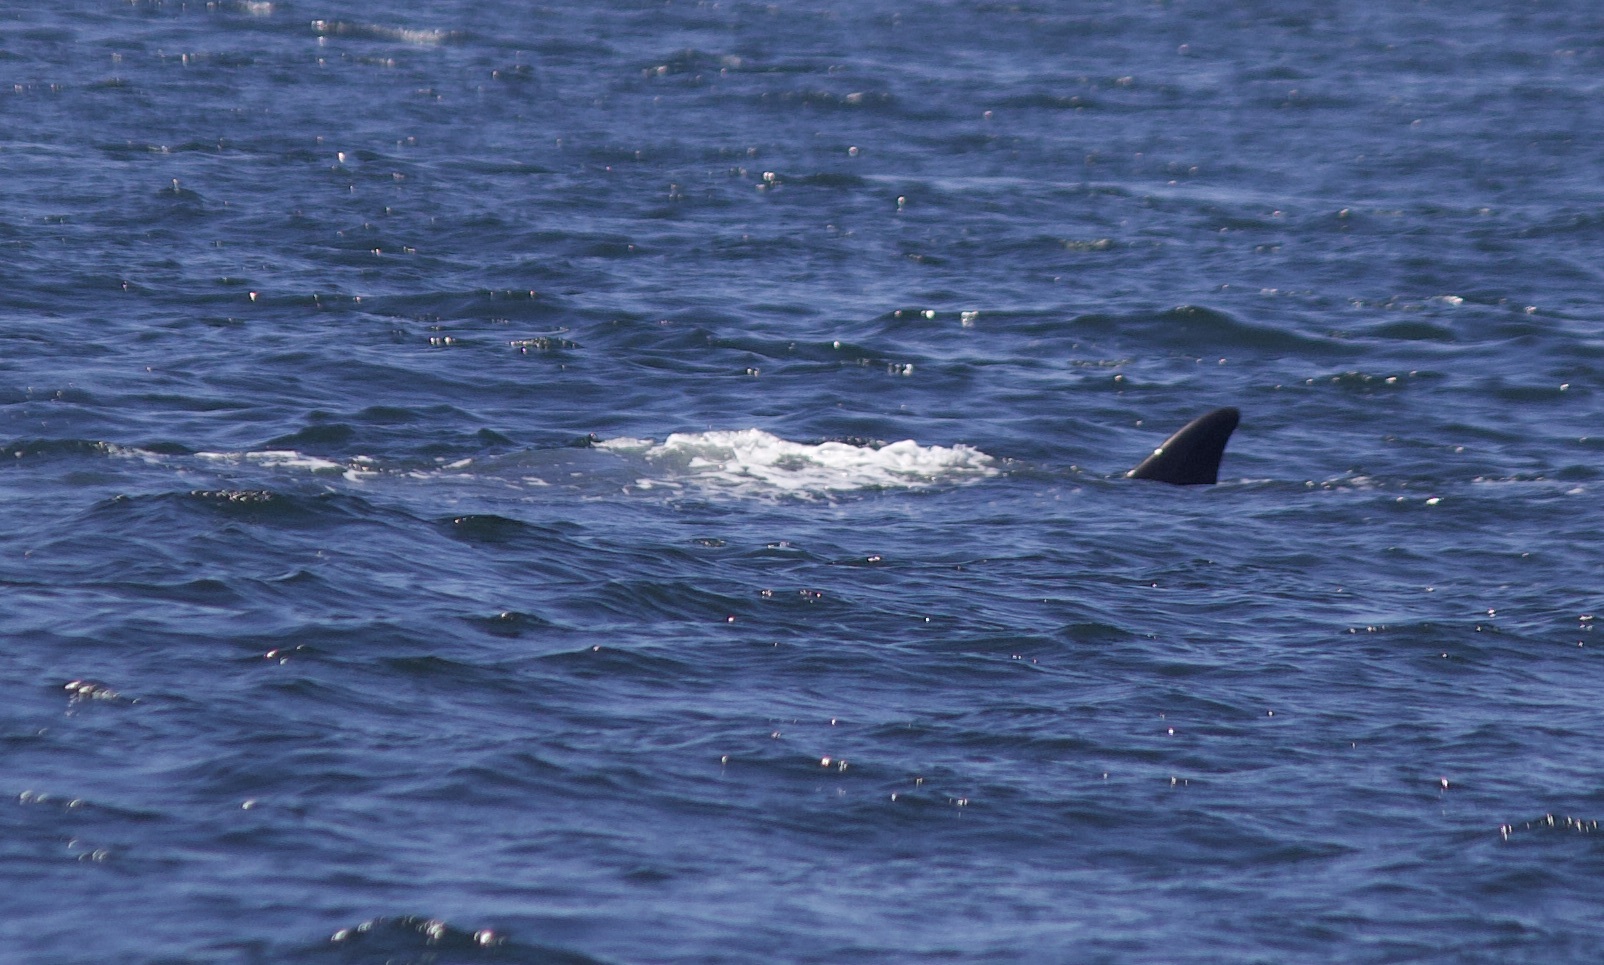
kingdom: Animalia
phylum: Chordata
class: Mammalia
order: Cetacea
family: Balaenopteridae
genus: Balaenoptera
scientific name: Balaenoptera physalus
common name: Fin whale
